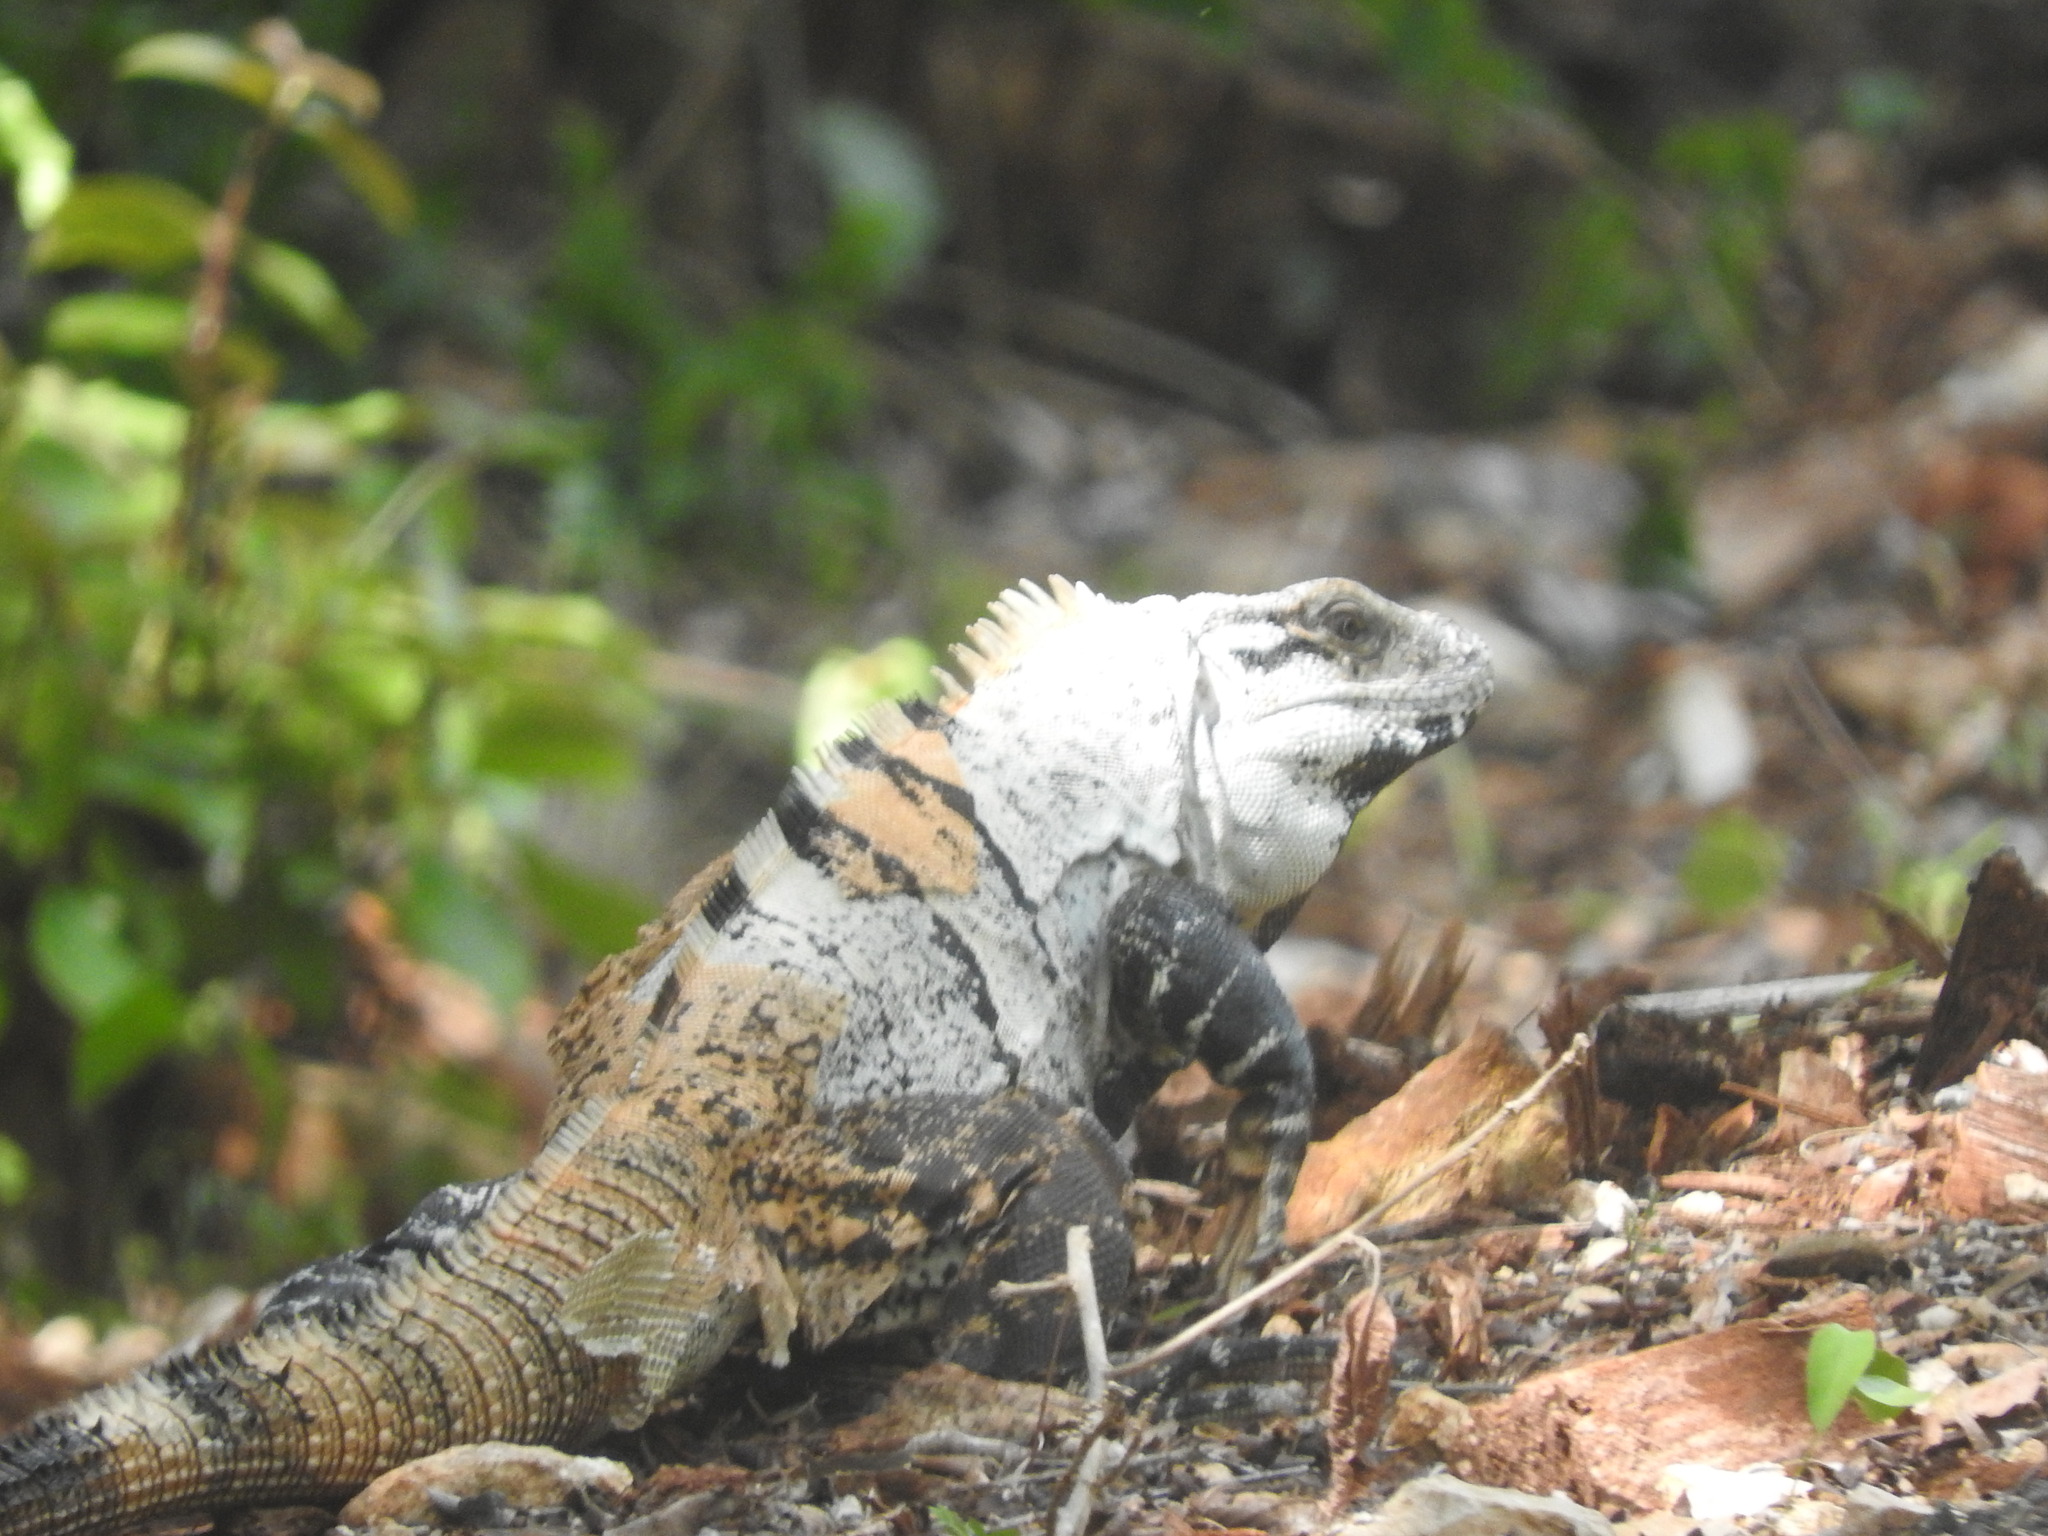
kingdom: Animalia
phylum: Chordata
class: Squamata
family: Iguanidae
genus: Ctenosaura
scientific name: Ctenosaura similis
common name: Black spiny-tailed iguana
